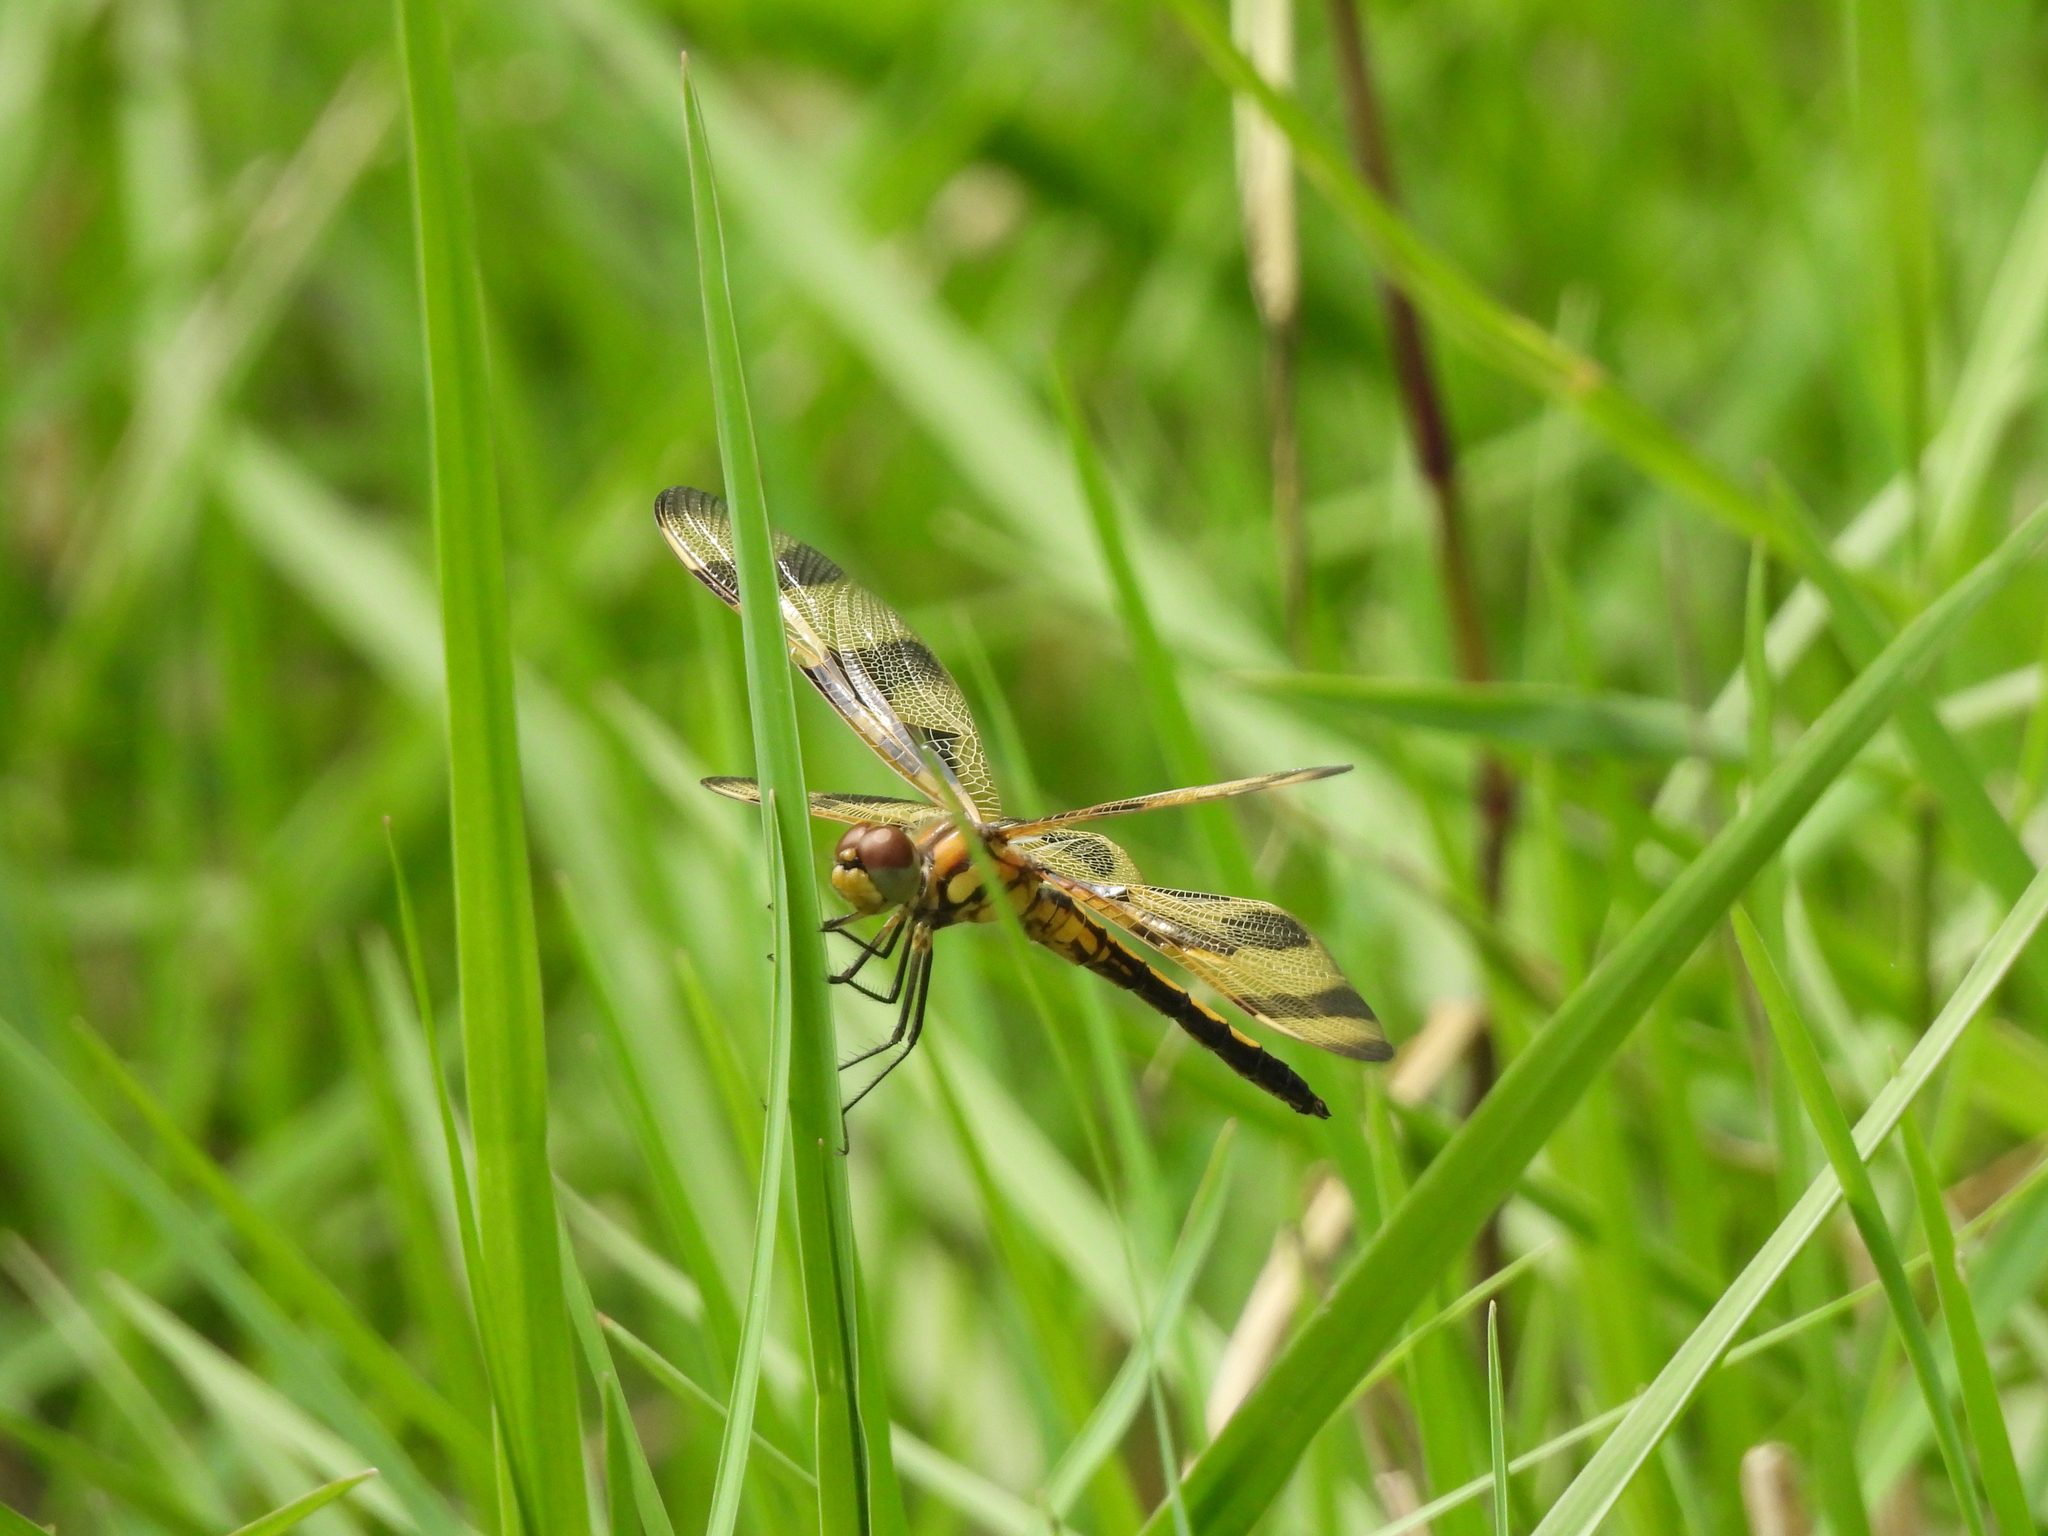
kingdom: Animalia
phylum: Arthropoda
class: Insecta
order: Odonata
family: Libellulidae
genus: Celithemis
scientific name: Celithemis eponina
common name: Halloween pennant
